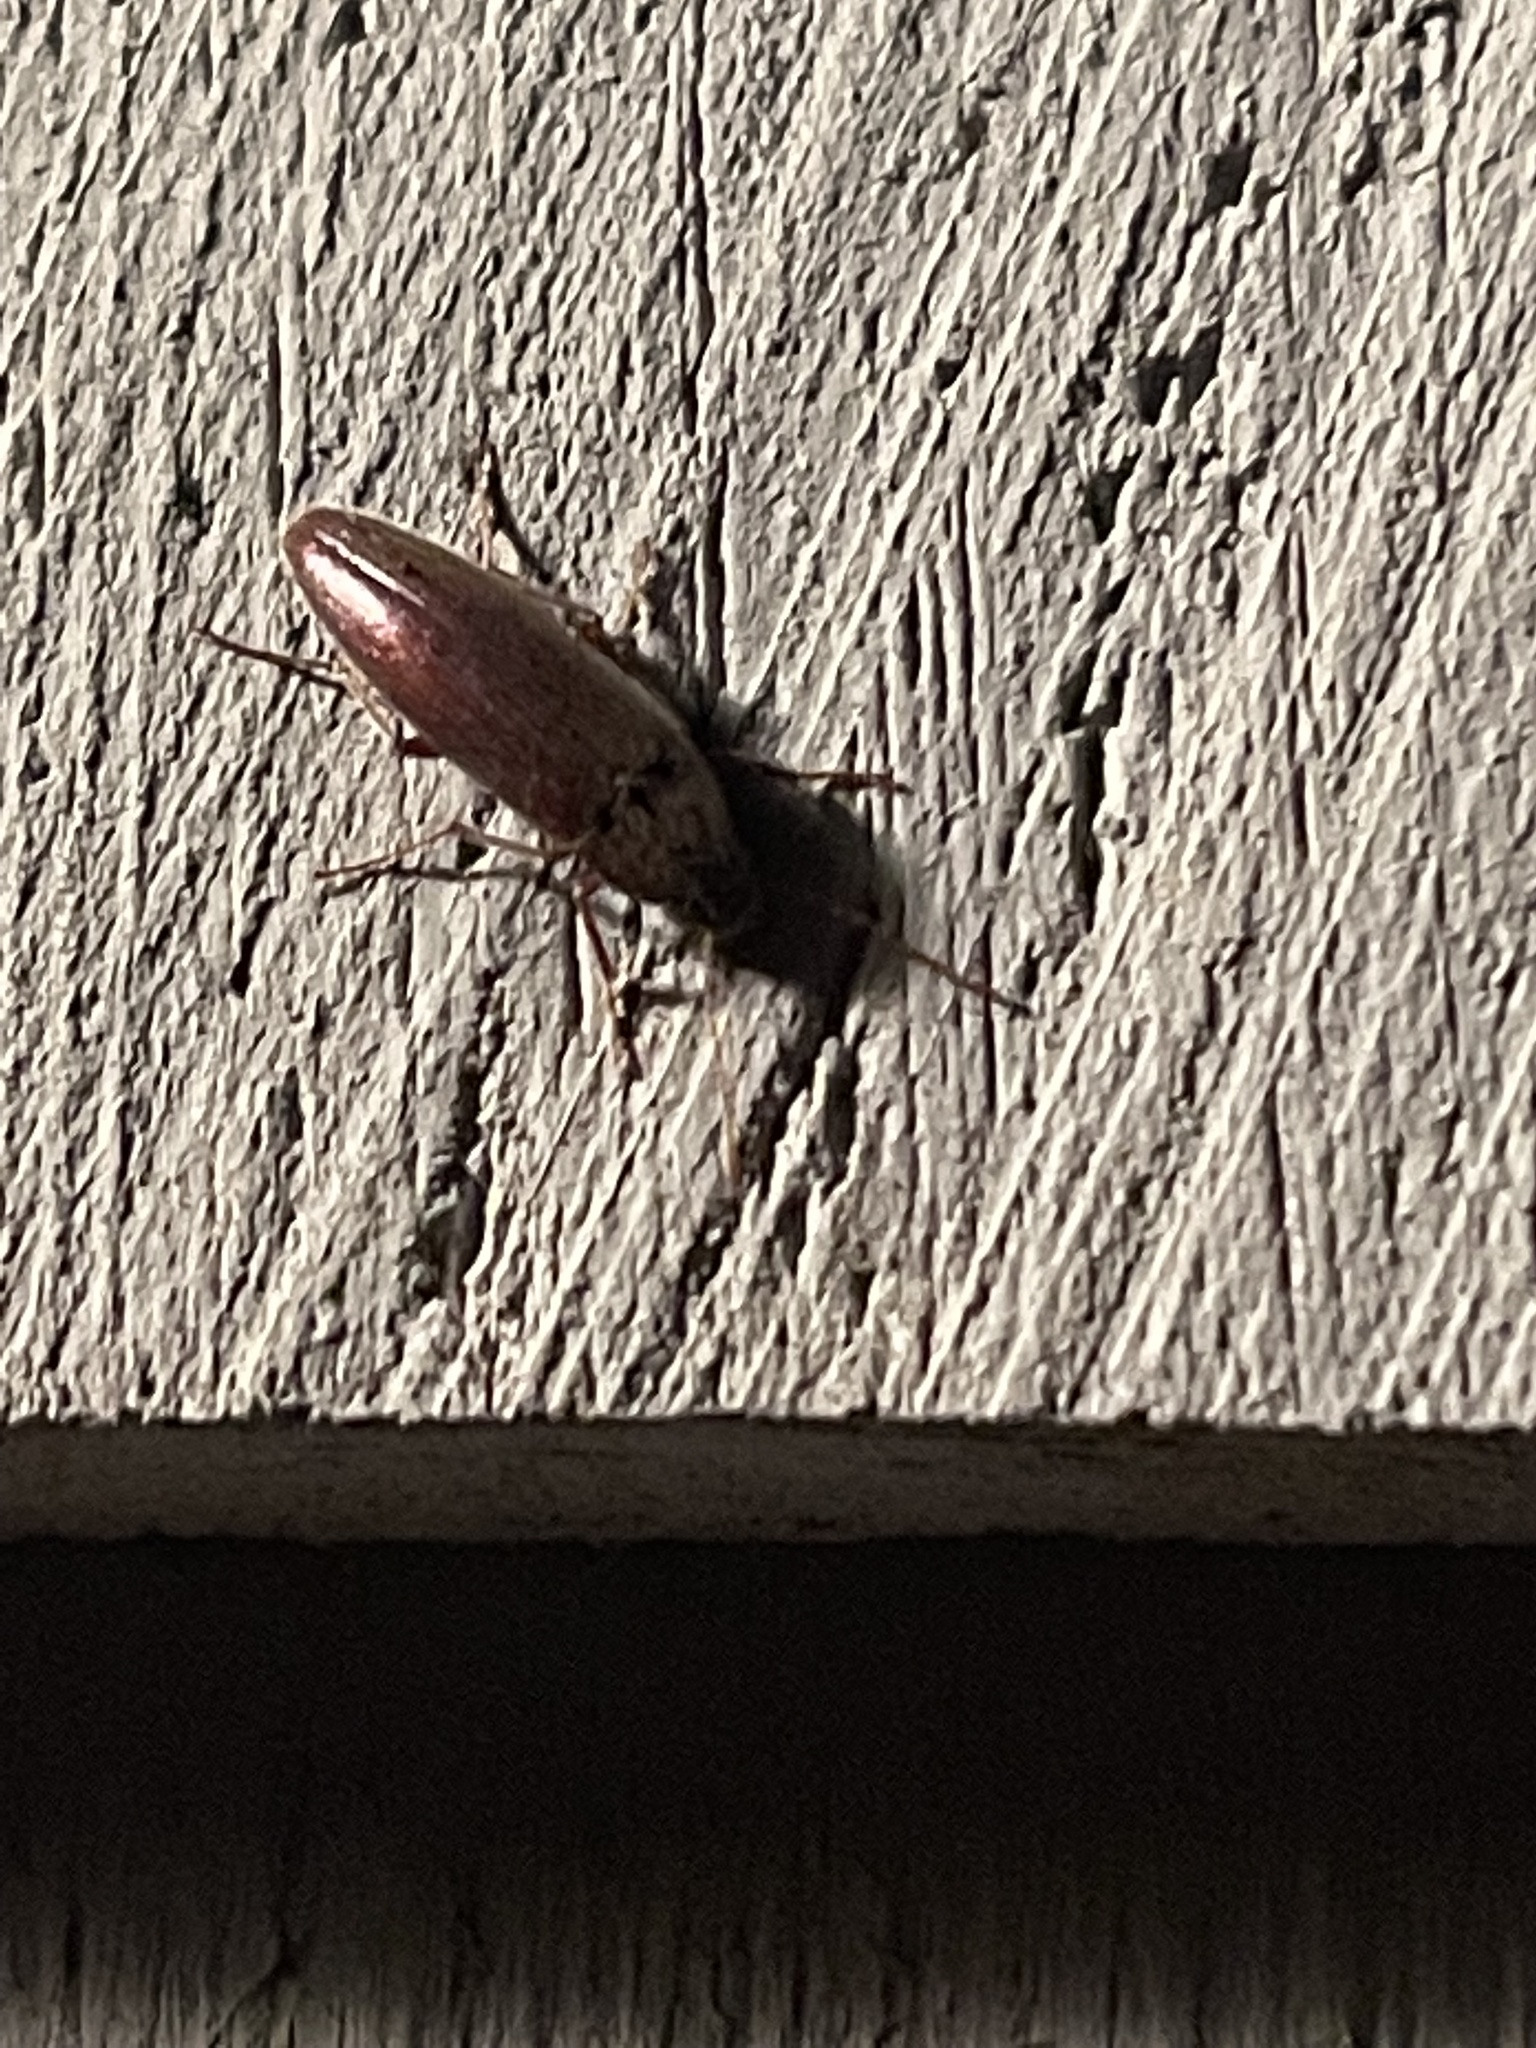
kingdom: Animalia
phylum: Arthropoda
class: Insecta
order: Coleoptera
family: Synchroidae
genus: Synchroa
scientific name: Synchroa punctata
